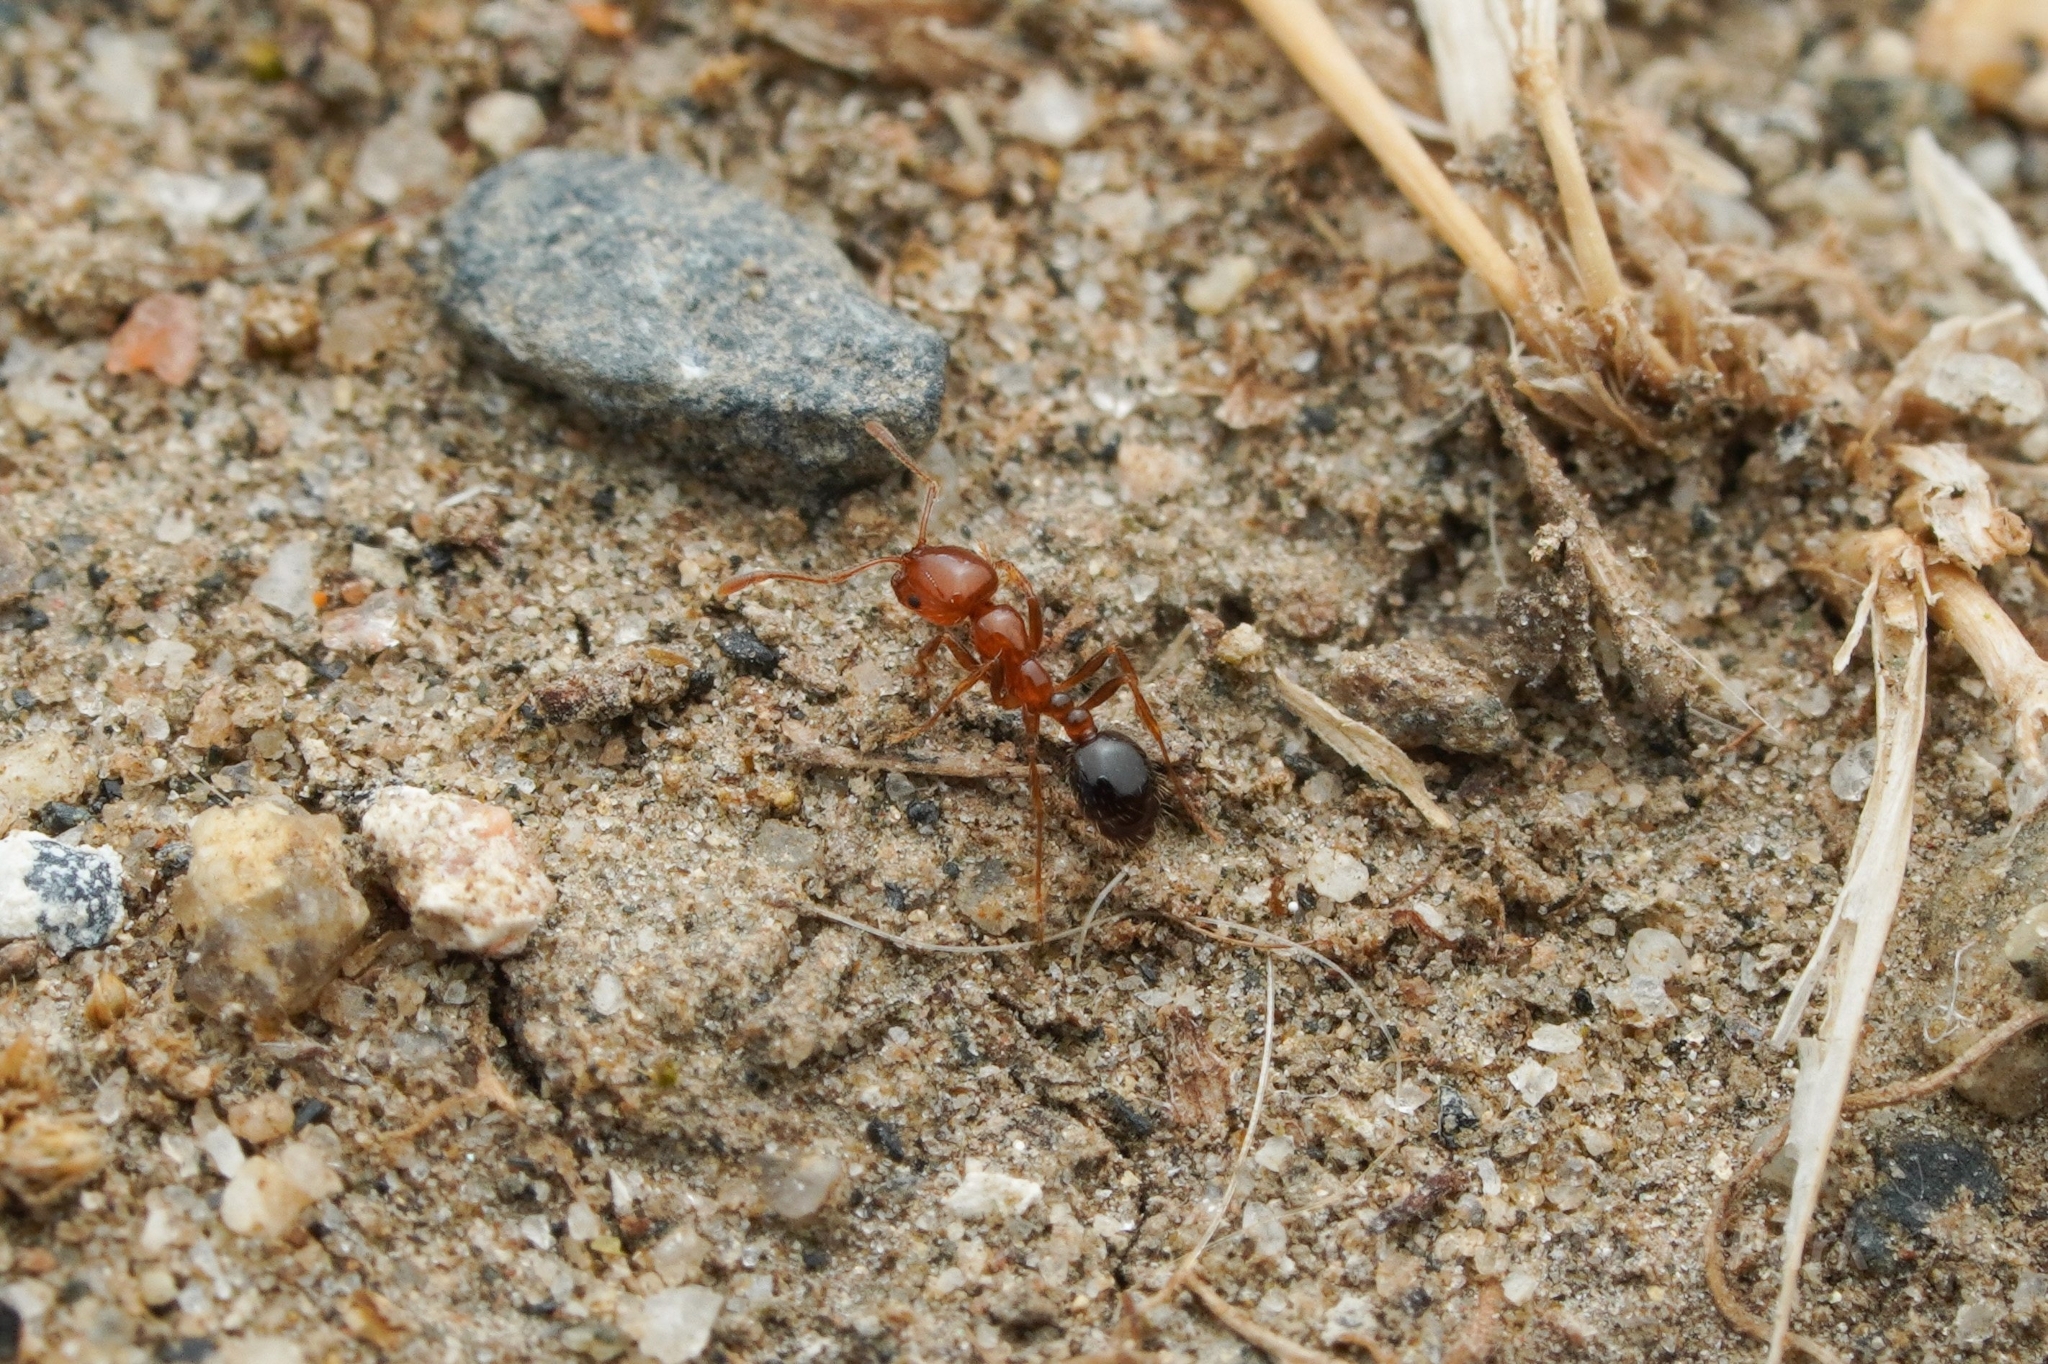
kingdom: Animalia
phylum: Arthropoda
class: Insecta
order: Hymenoptera
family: Formicidae
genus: Solenopsis
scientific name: Solenopsis xyloni
